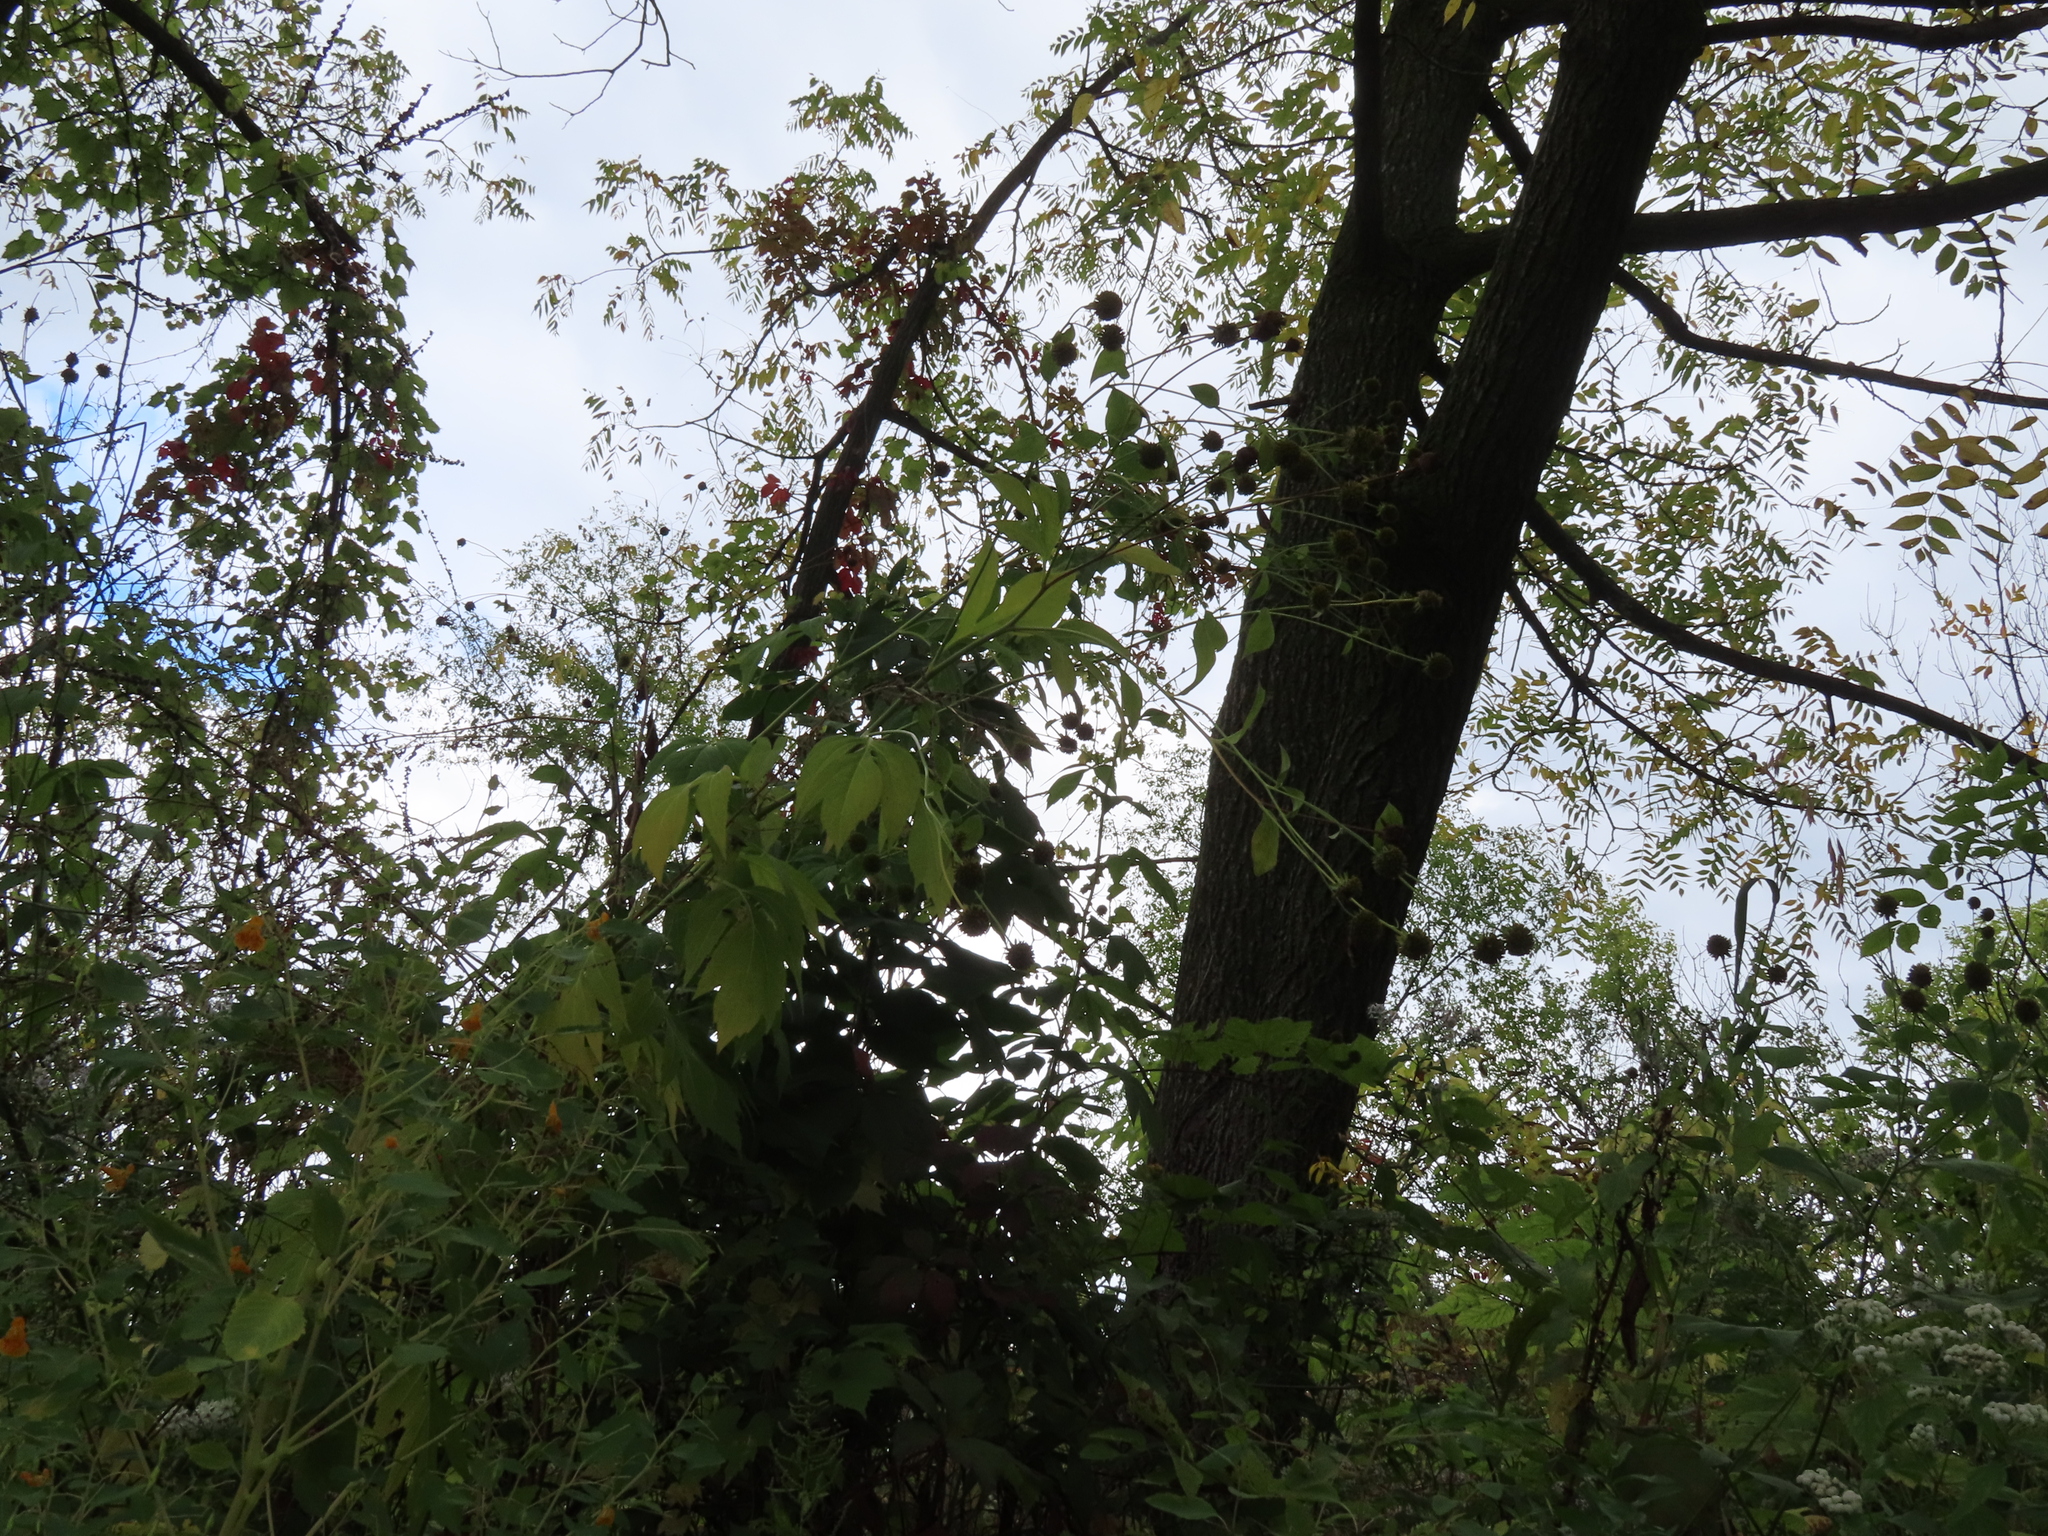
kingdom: Plantae
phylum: Tracheophyta
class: Magnoliopsida
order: Asterales
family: Asteraceae
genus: Rudbeckia
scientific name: Rudbeckia laciniata
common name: Coneflower
